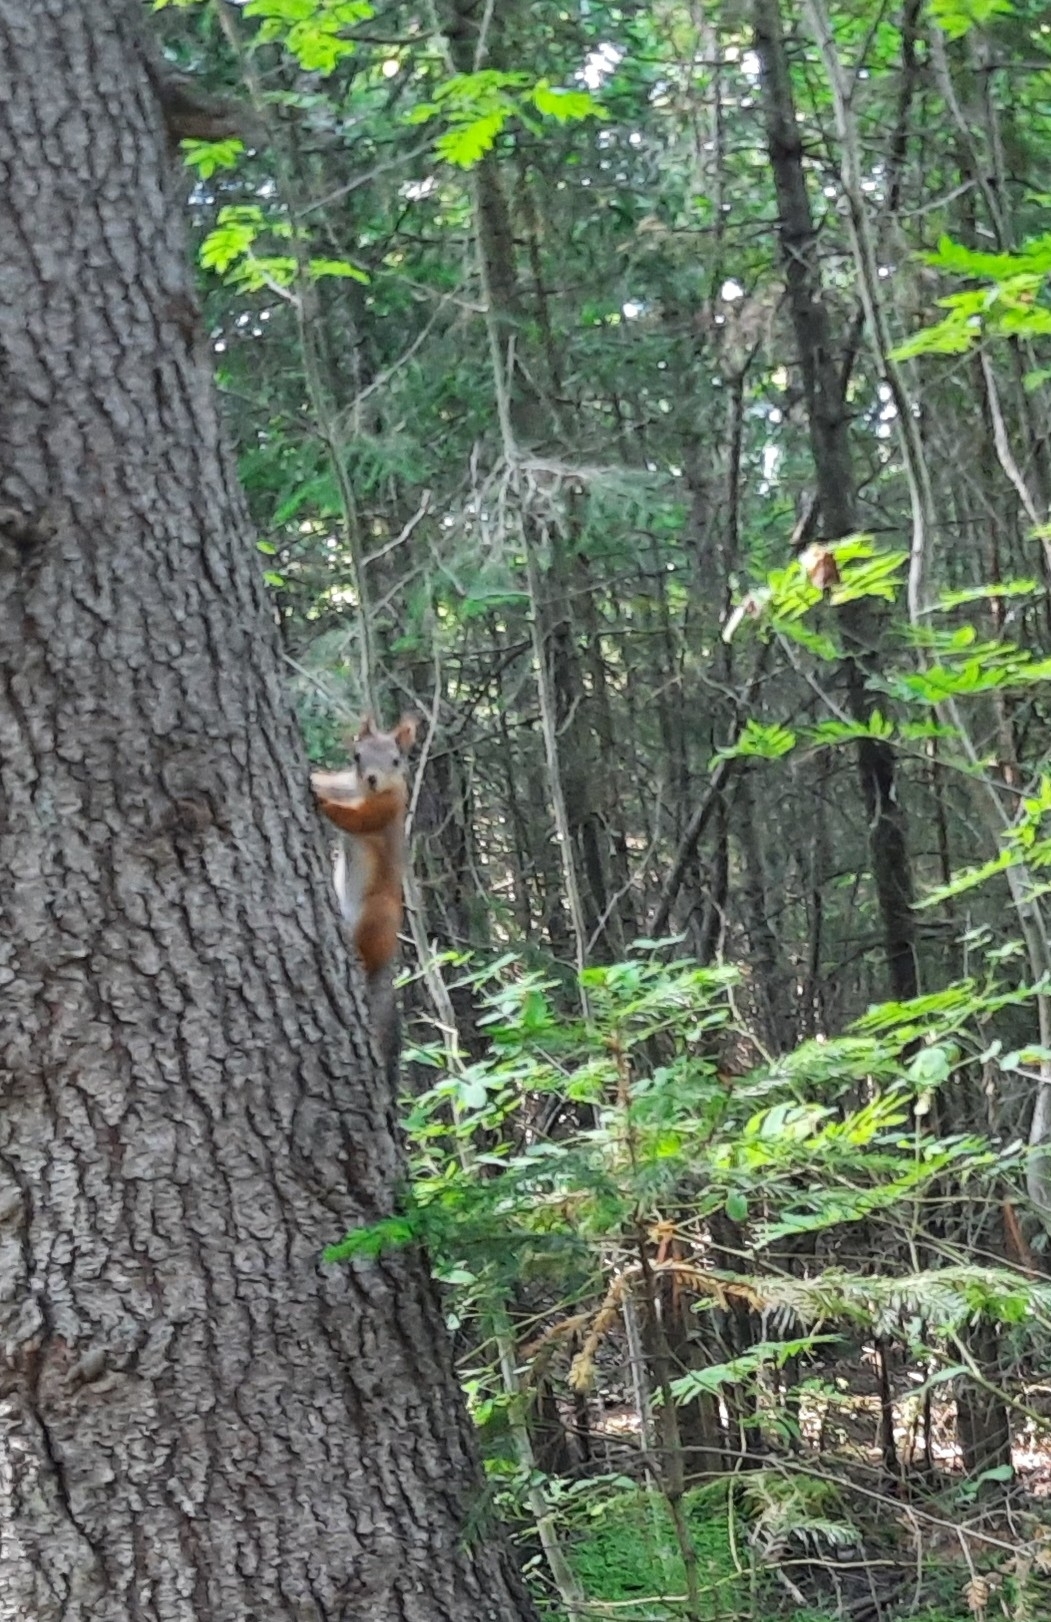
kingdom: Animalia
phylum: Chordata
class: Mammalia
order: Rodentia
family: Sciuridae
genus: Sciurus
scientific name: Sciurus vulgaris
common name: Eurasian red squirrel
